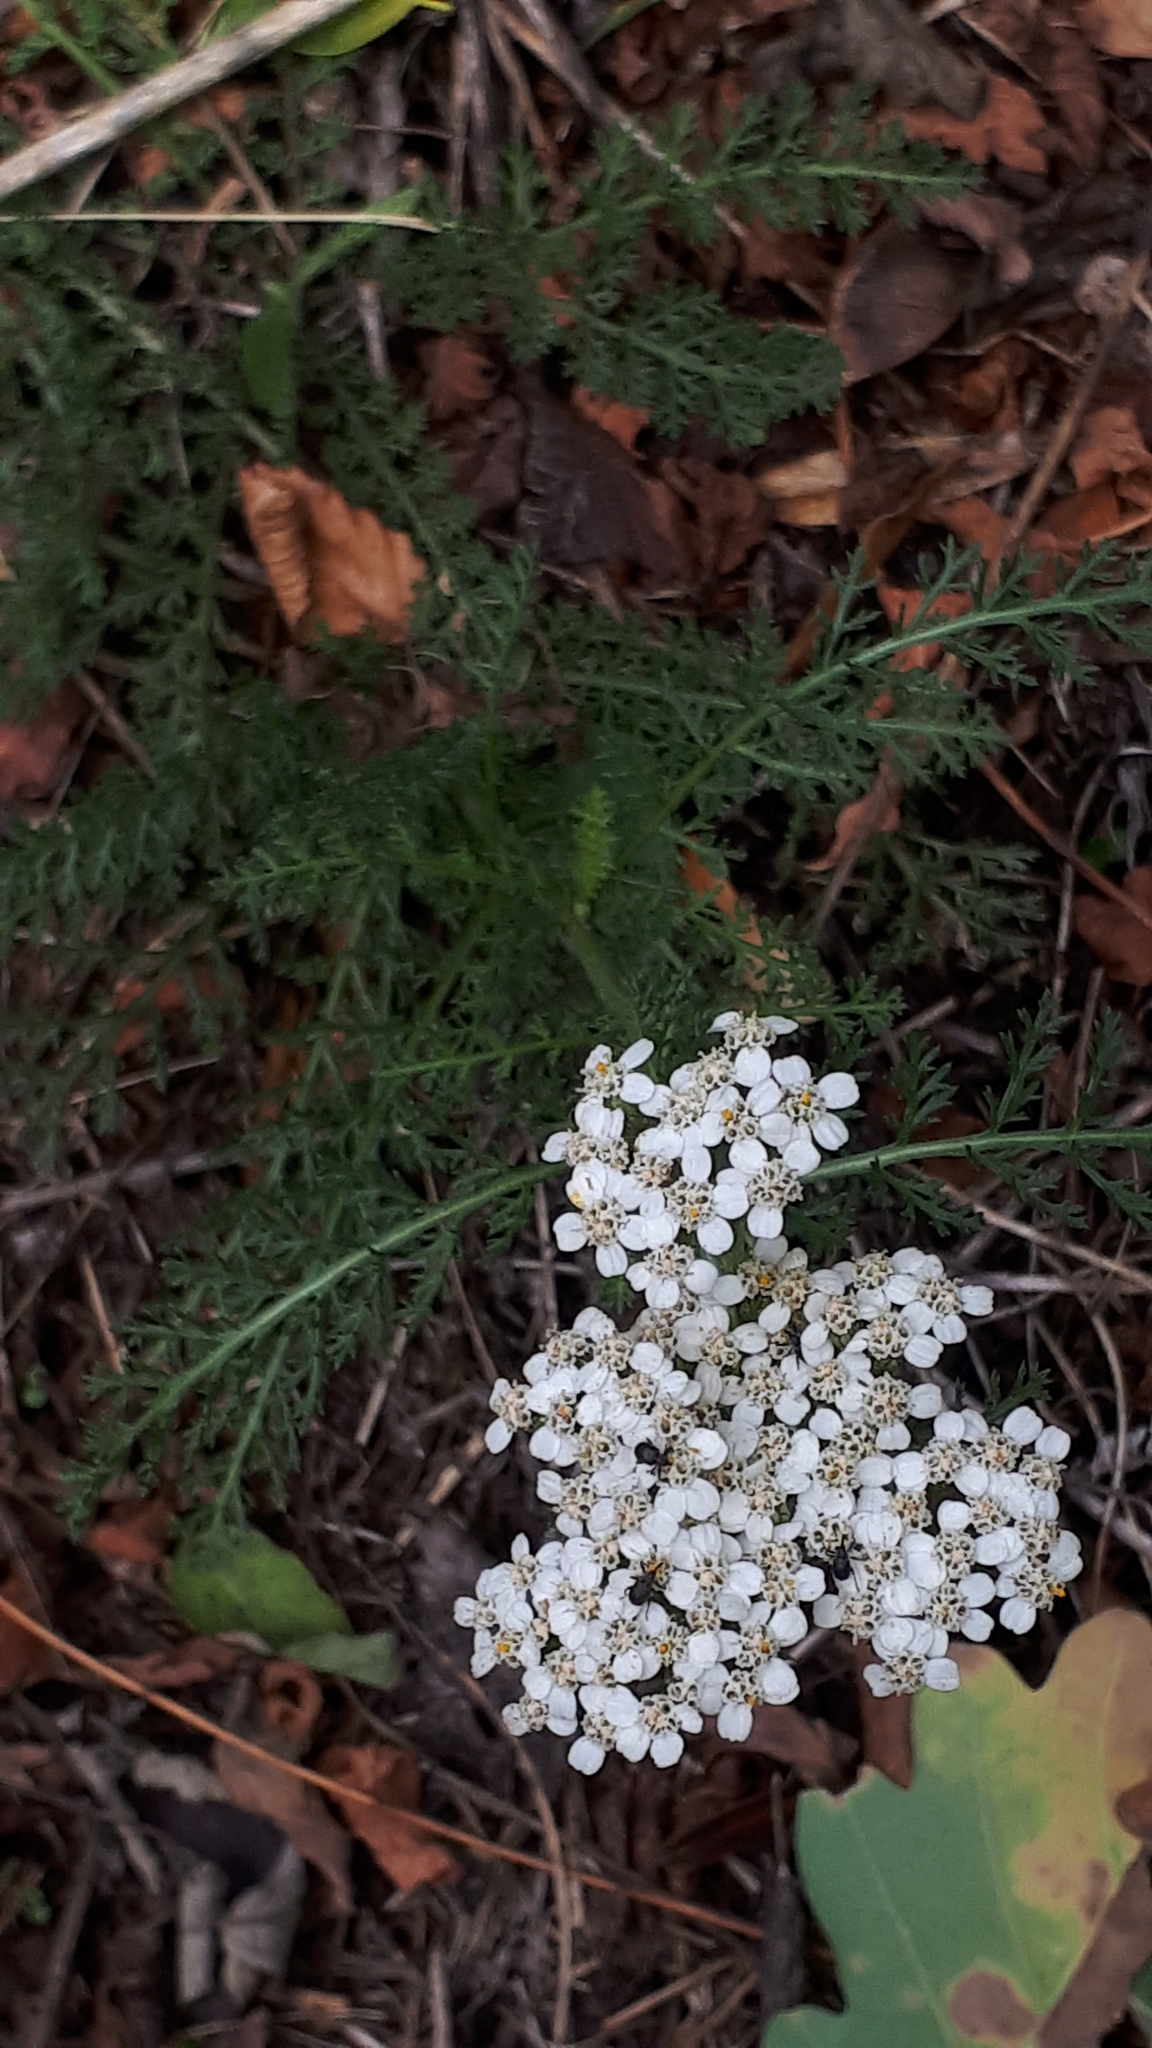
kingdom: Plantae
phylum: Tracheophyta
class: Magnoliopsida
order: Asterales
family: Asteraceae
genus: Achillea
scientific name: Achillea millefolium
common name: Yarrow
